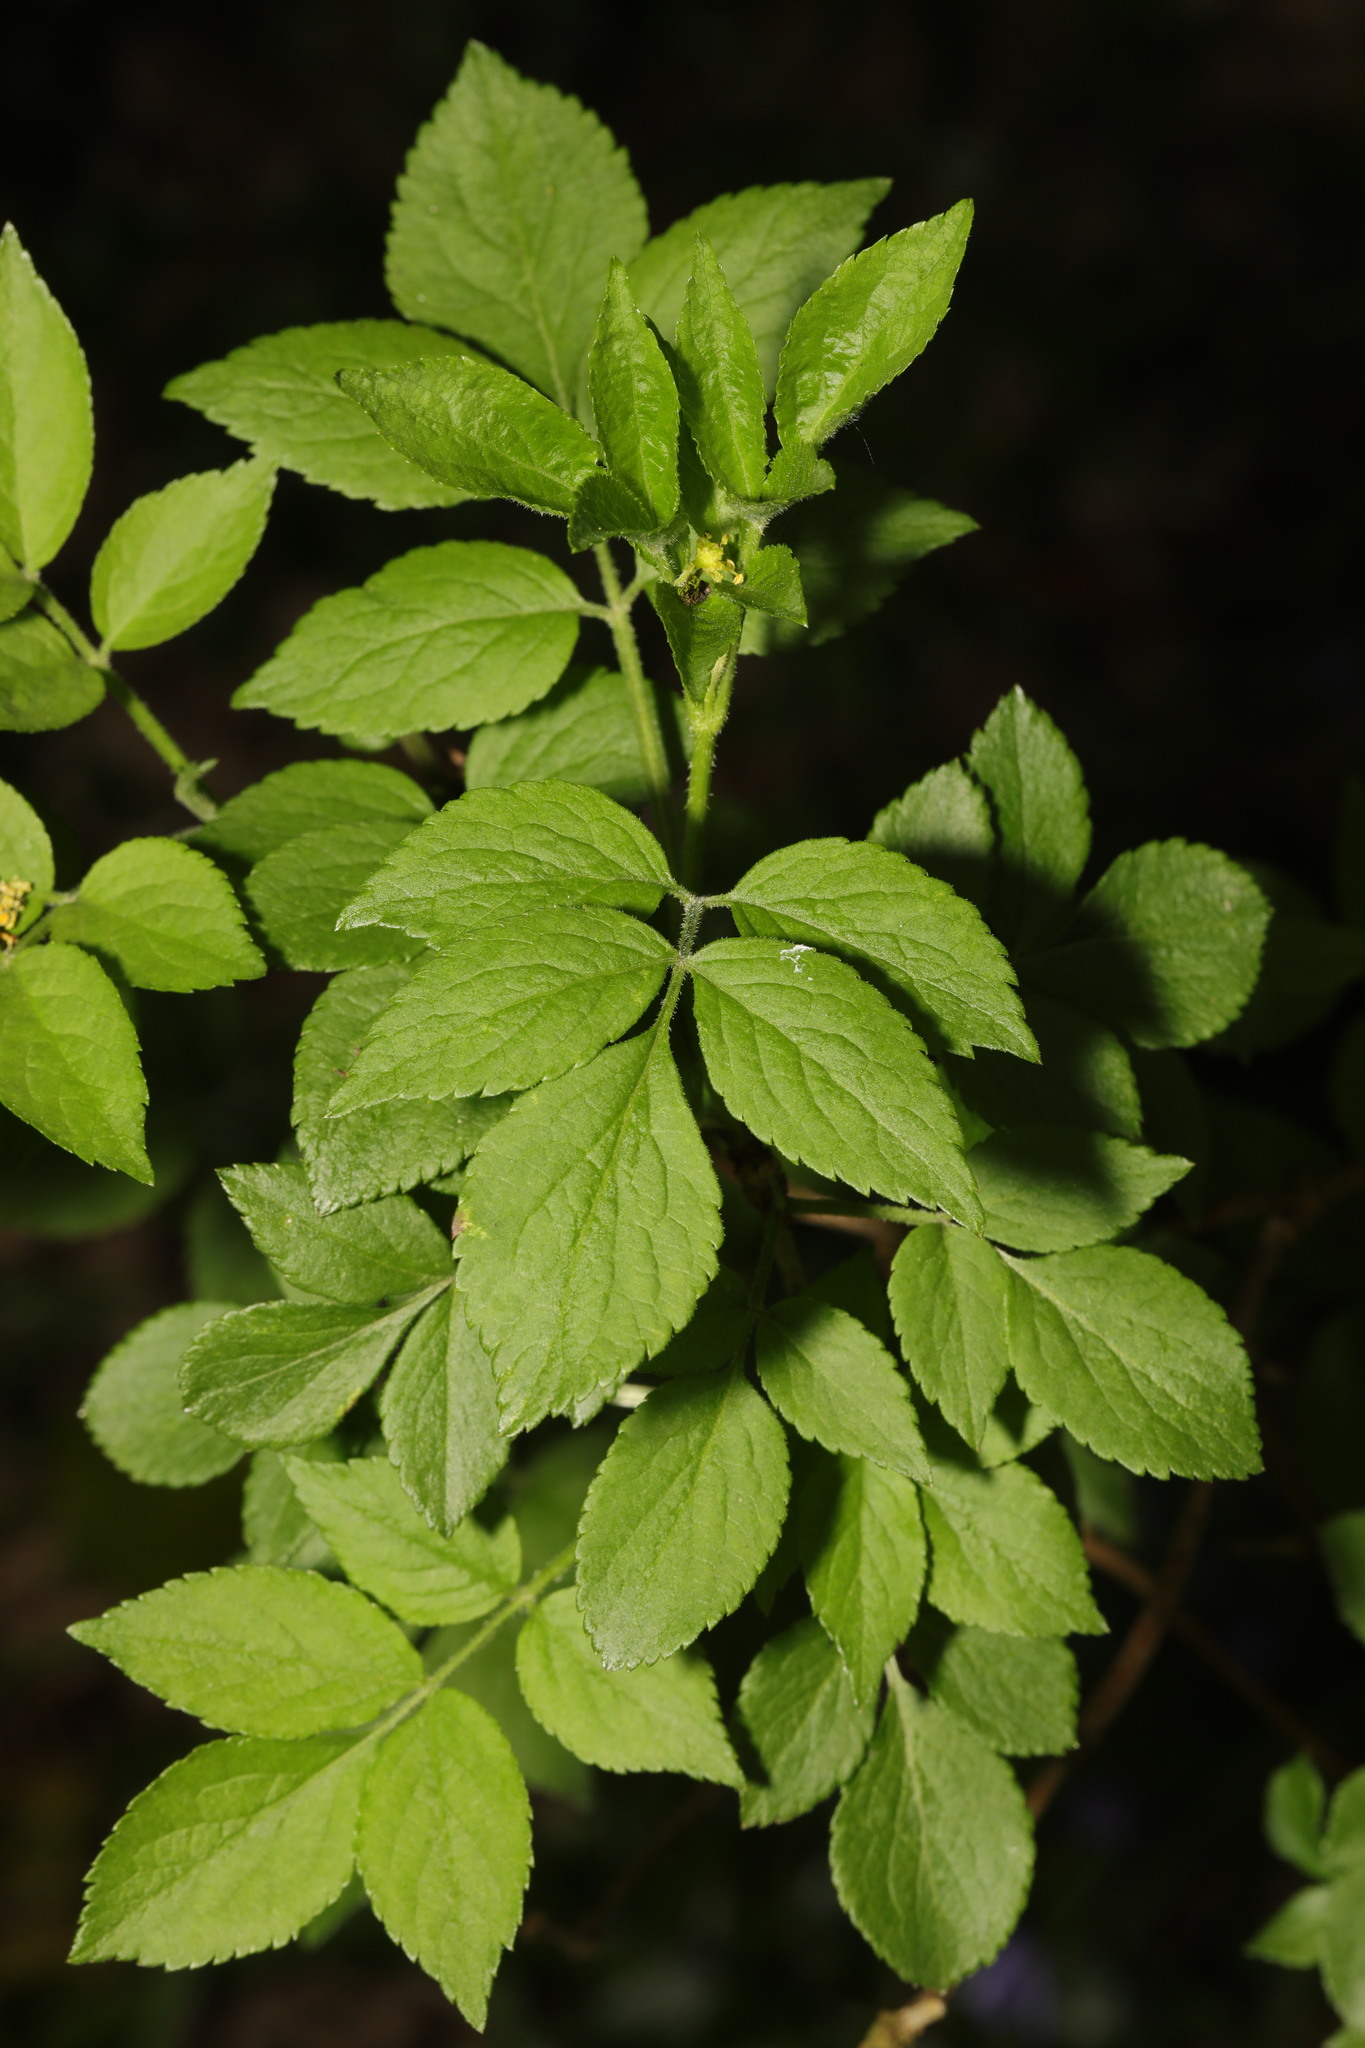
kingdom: Plantae
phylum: Tracheophyta
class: Magnoliopsida
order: Dipsacales
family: Viburnaceae
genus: Sambucus
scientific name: Sambucus nigra
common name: Elder
